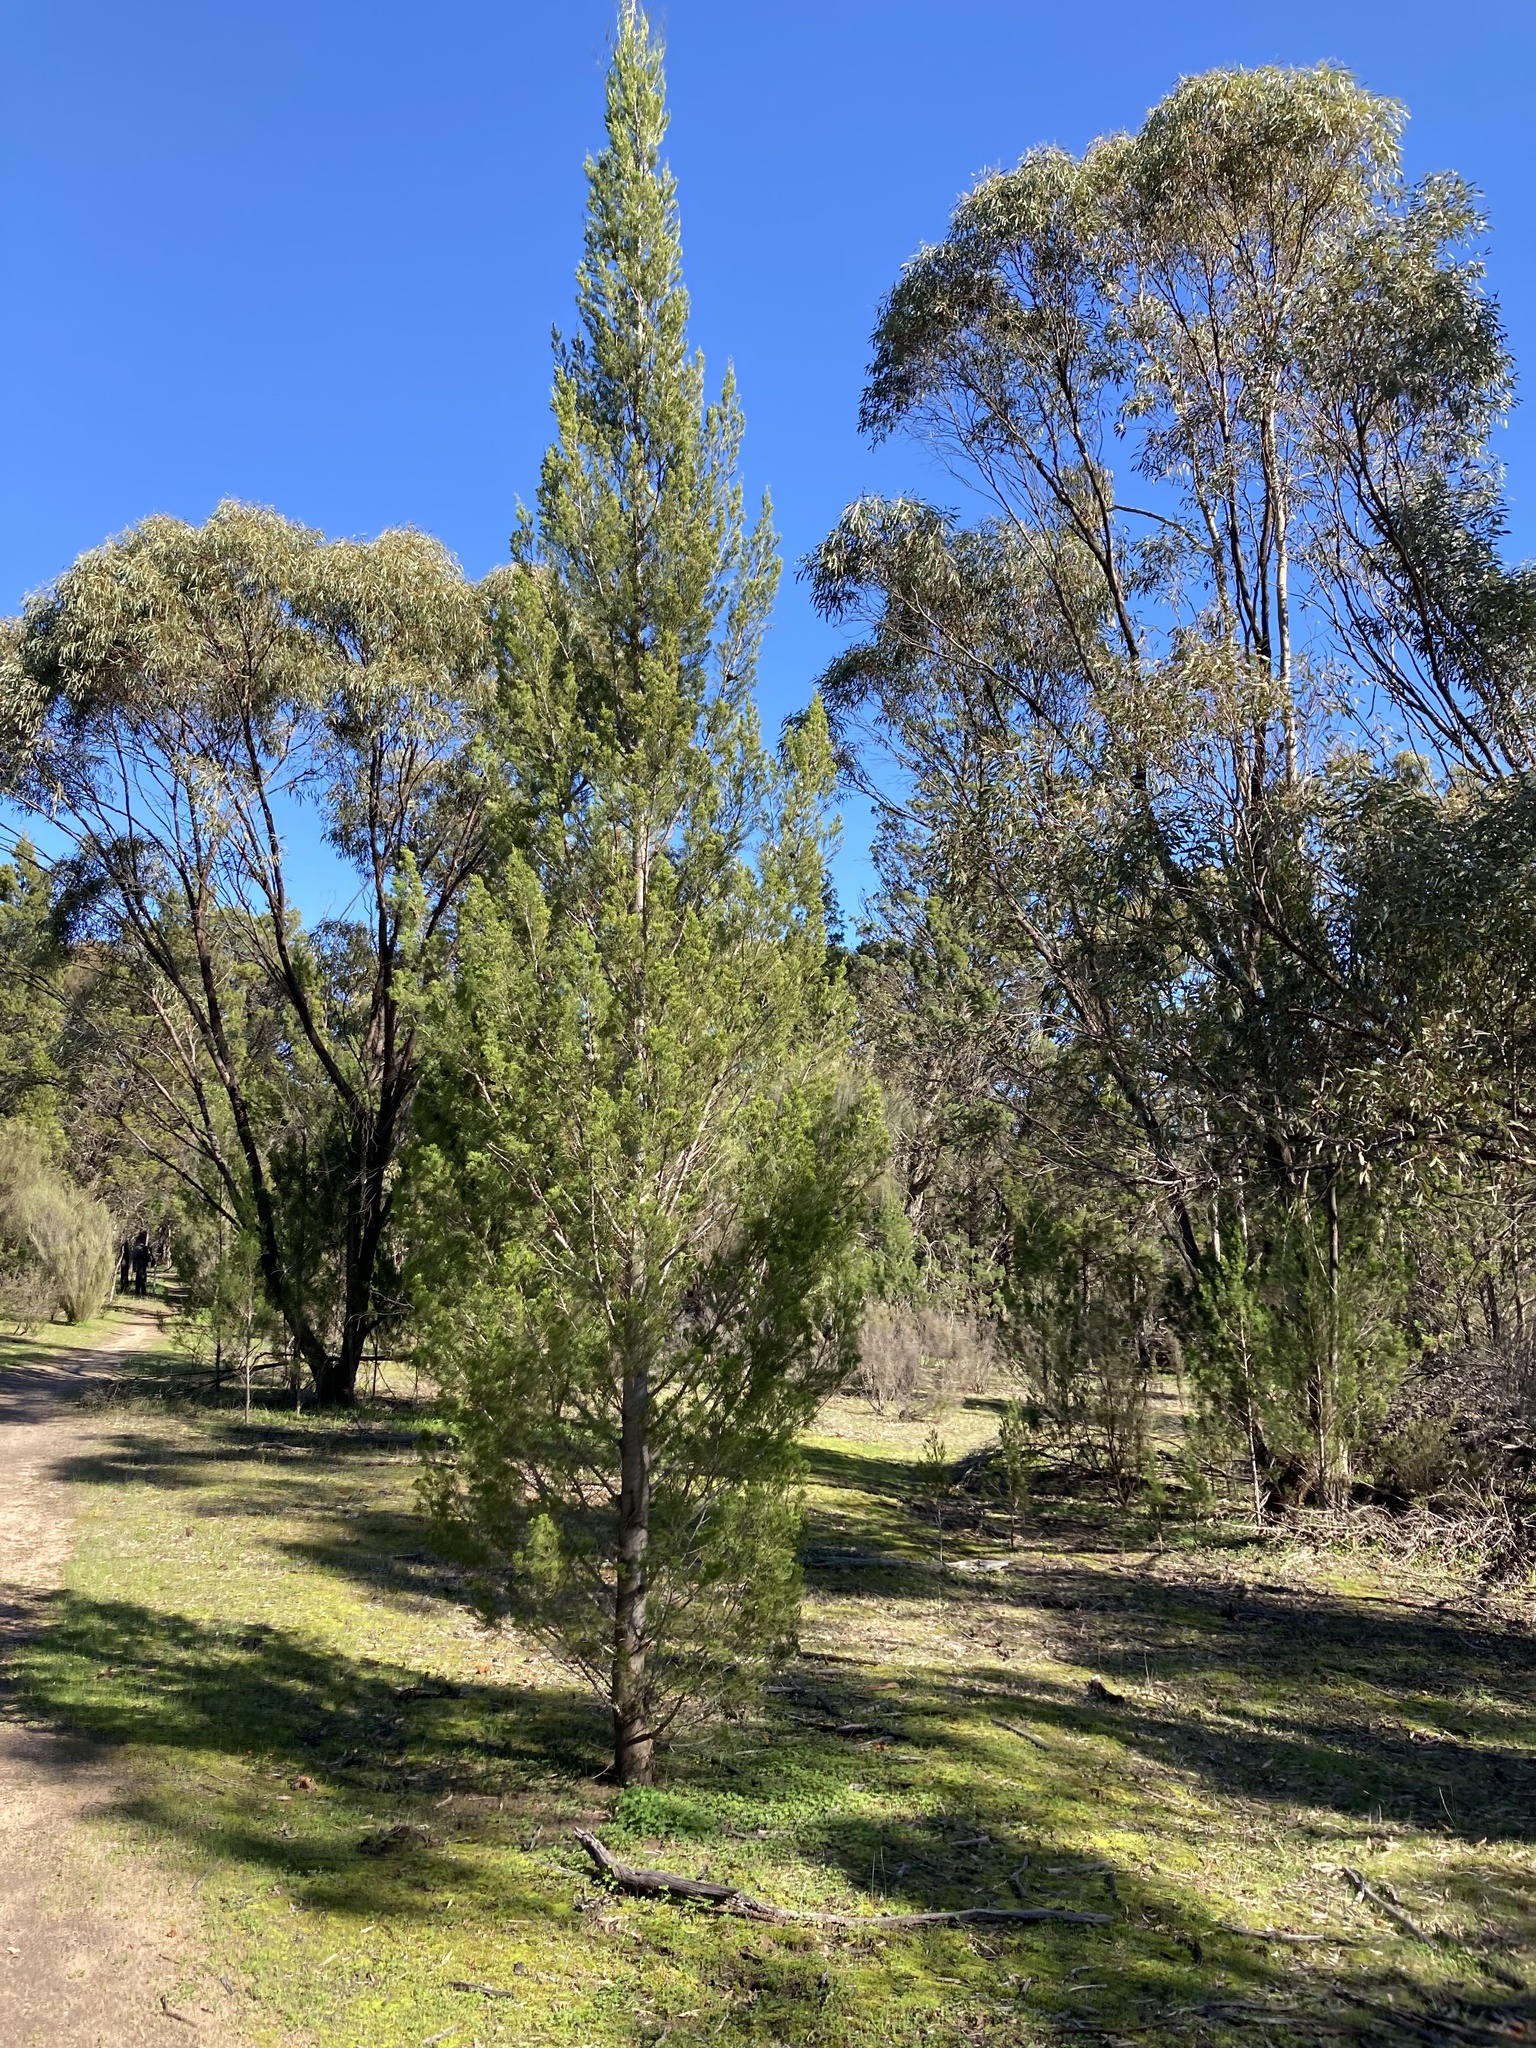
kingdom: Plantae
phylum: Tracheophyta
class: Pinopsida
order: Pinales
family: Cupressaceae
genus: Callitris
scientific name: Callitris preissii
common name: Mallee pine
